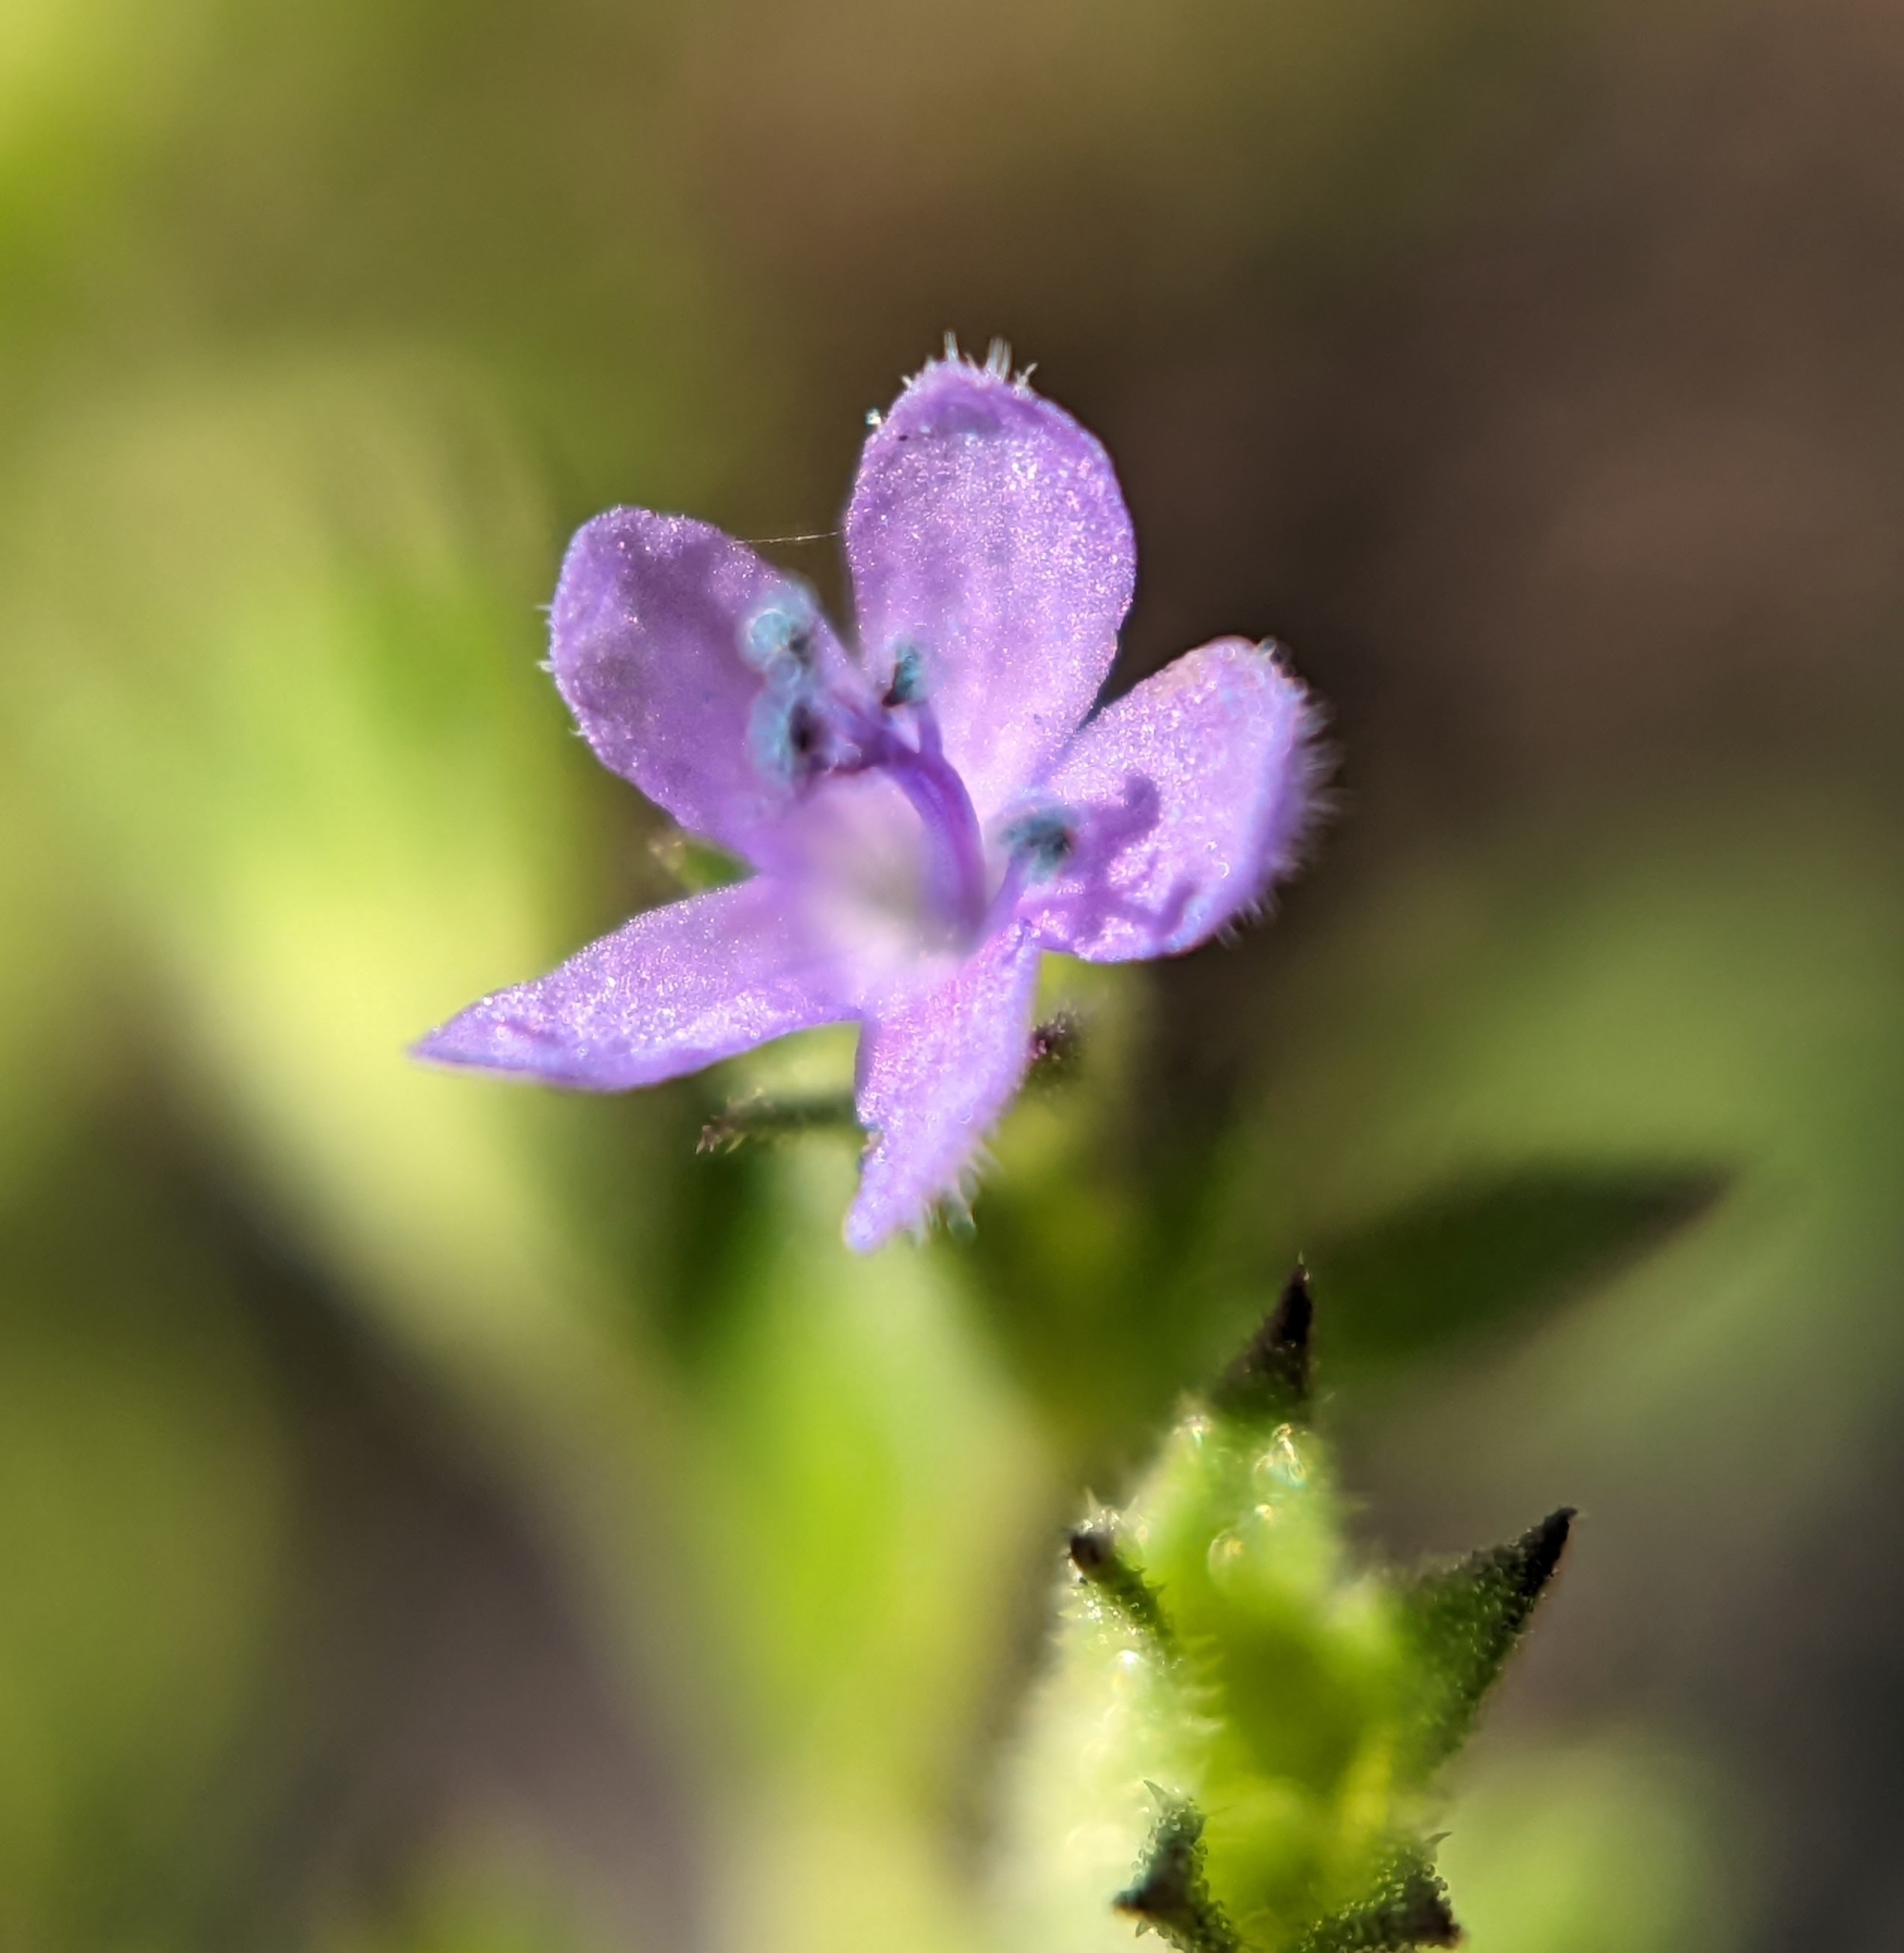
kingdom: Plantae
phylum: Tracheophyta
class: Magnoliopsida
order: Lamiales
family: Lamiaceae
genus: Trichostema
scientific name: Trichostema brachiatum
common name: False pennyroyal
